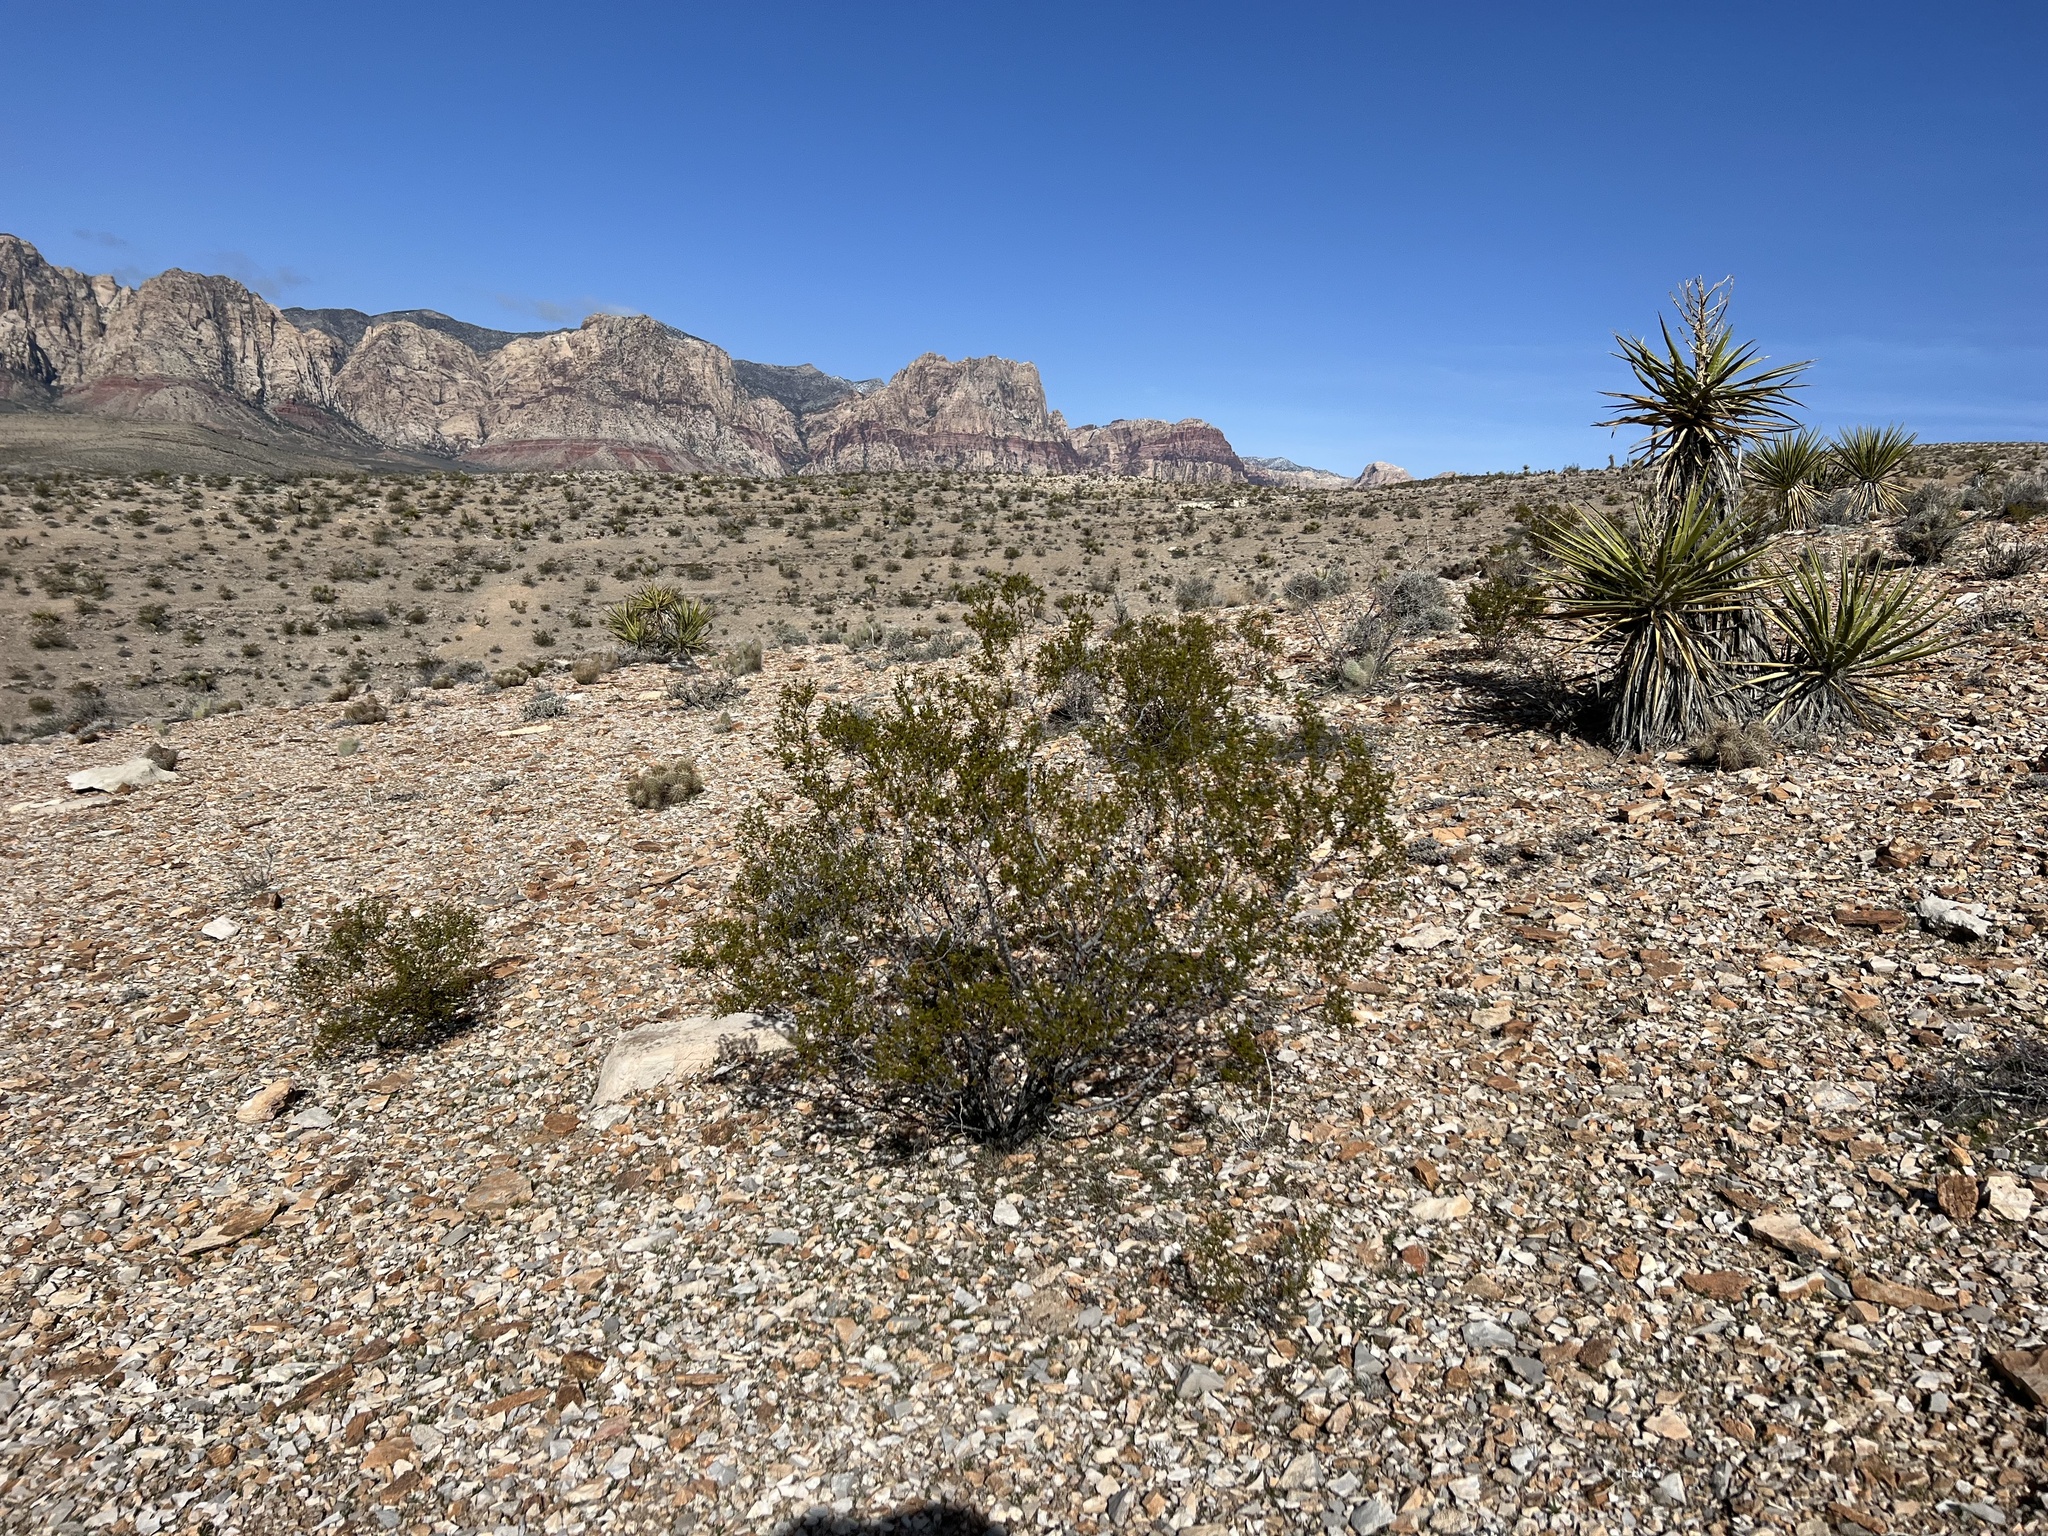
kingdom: Plantae
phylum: Tracheophyta
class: Magnoliopsida
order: Zygophyllales
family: Zygophyllaceae
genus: Larrea
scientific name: Larrea tridentata
